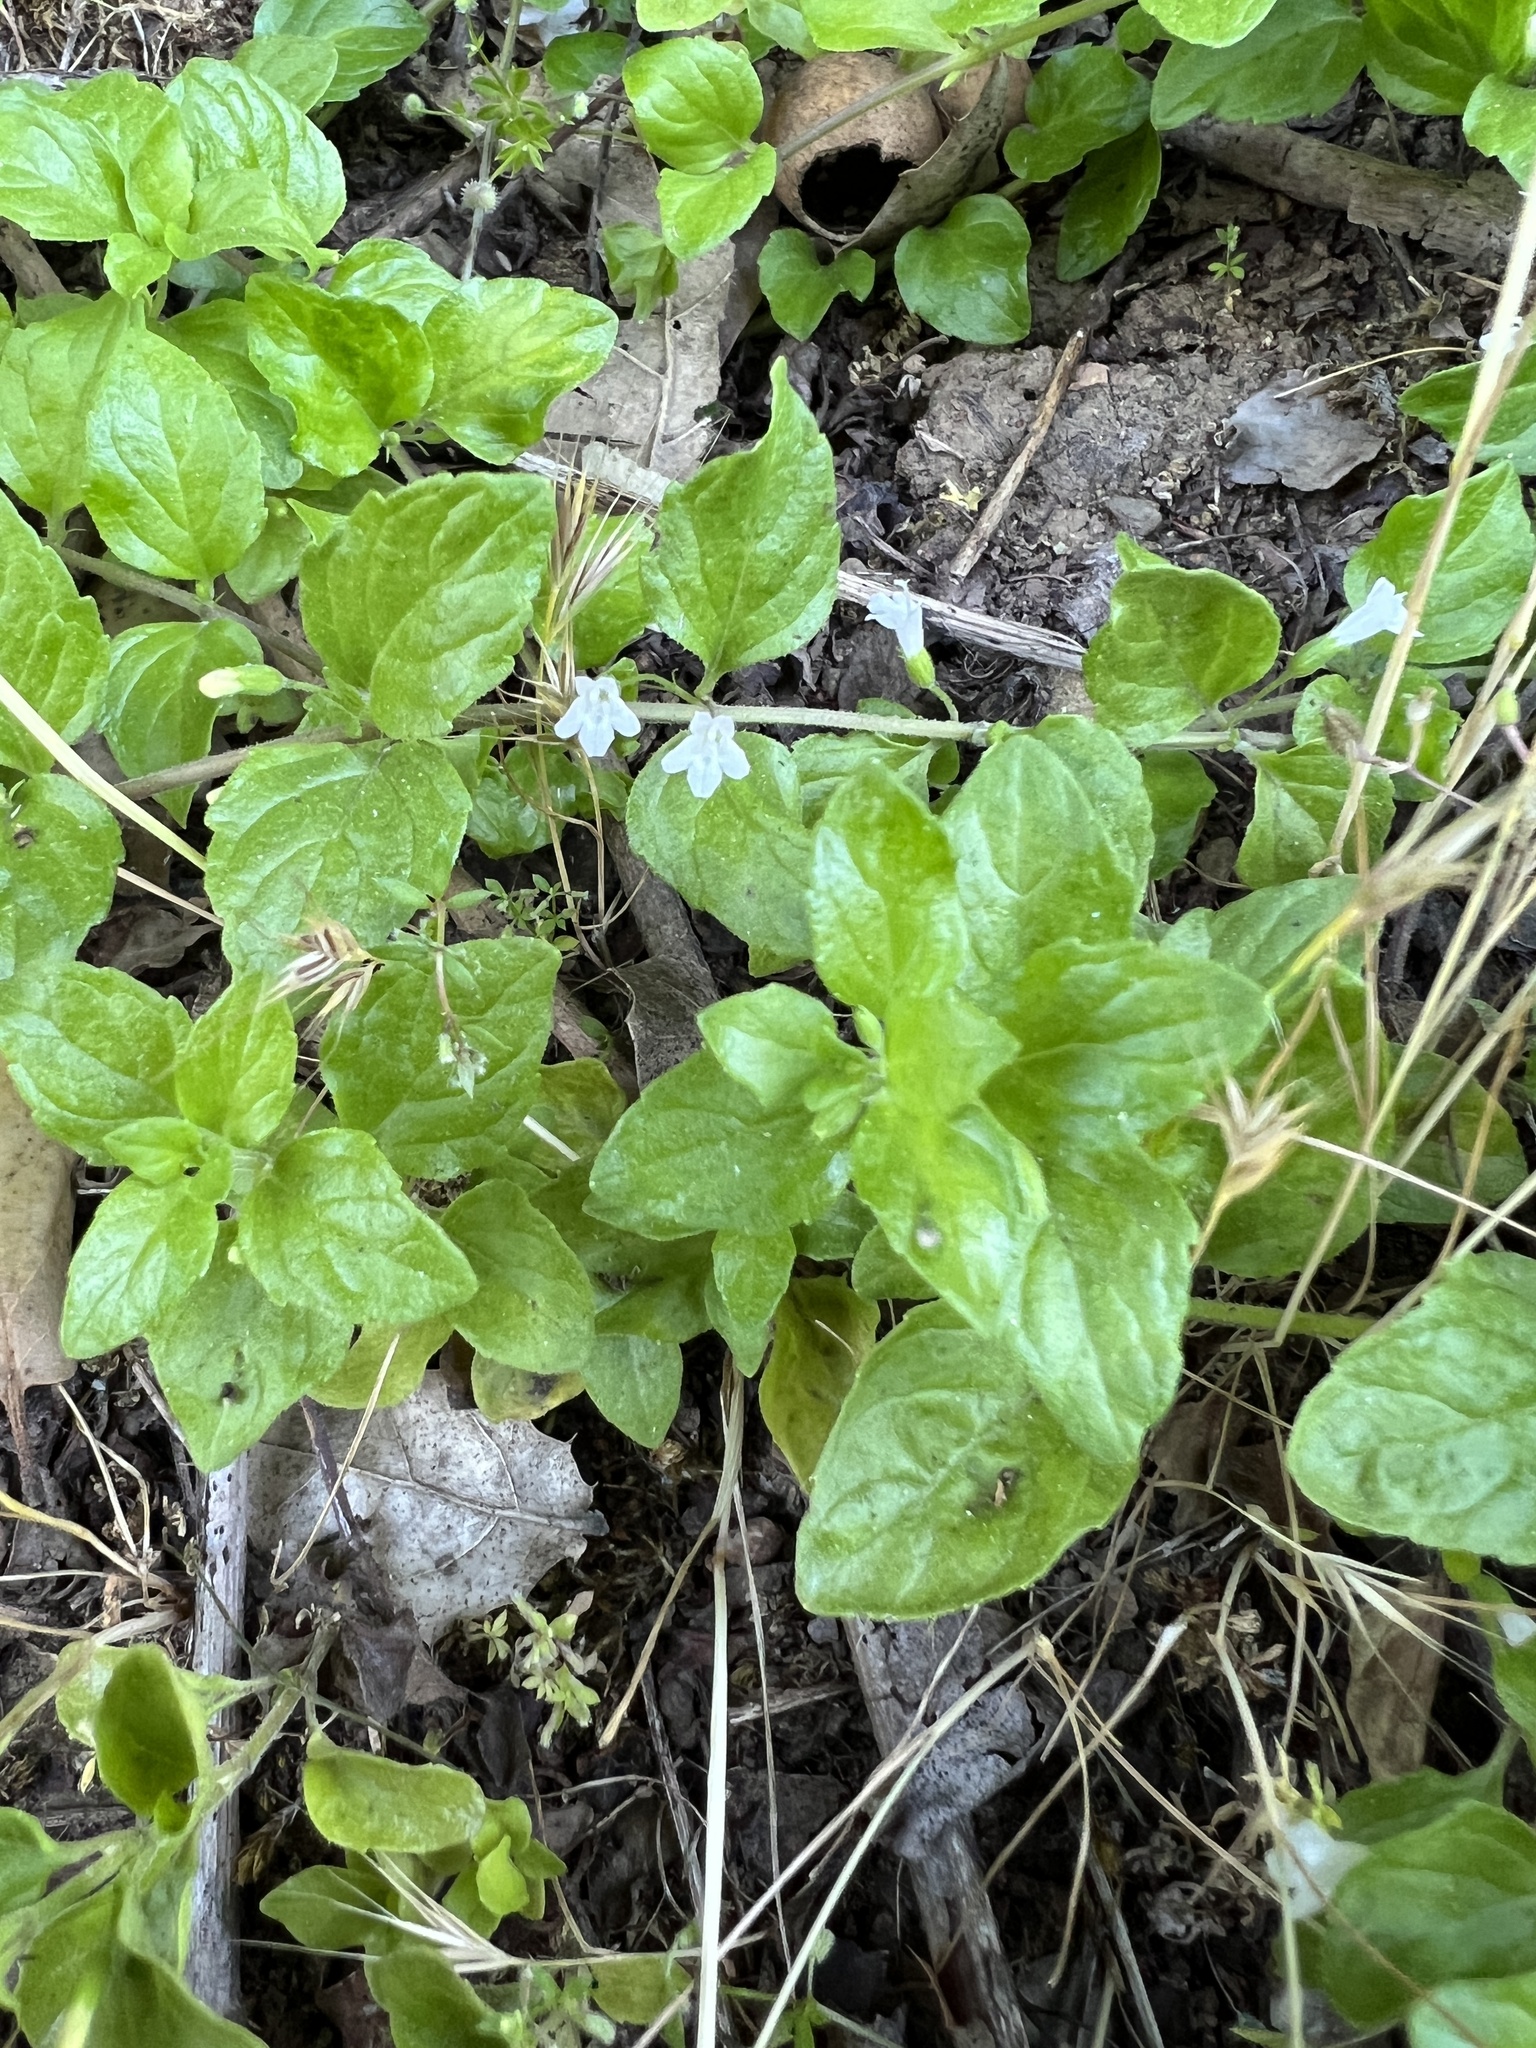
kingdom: Plantae
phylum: Tracheophyta
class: Magnoliopsida
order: Lamiales
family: Lamiaceae
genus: Micromeria
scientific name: Micromeria douglasii
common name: Yerba buena
